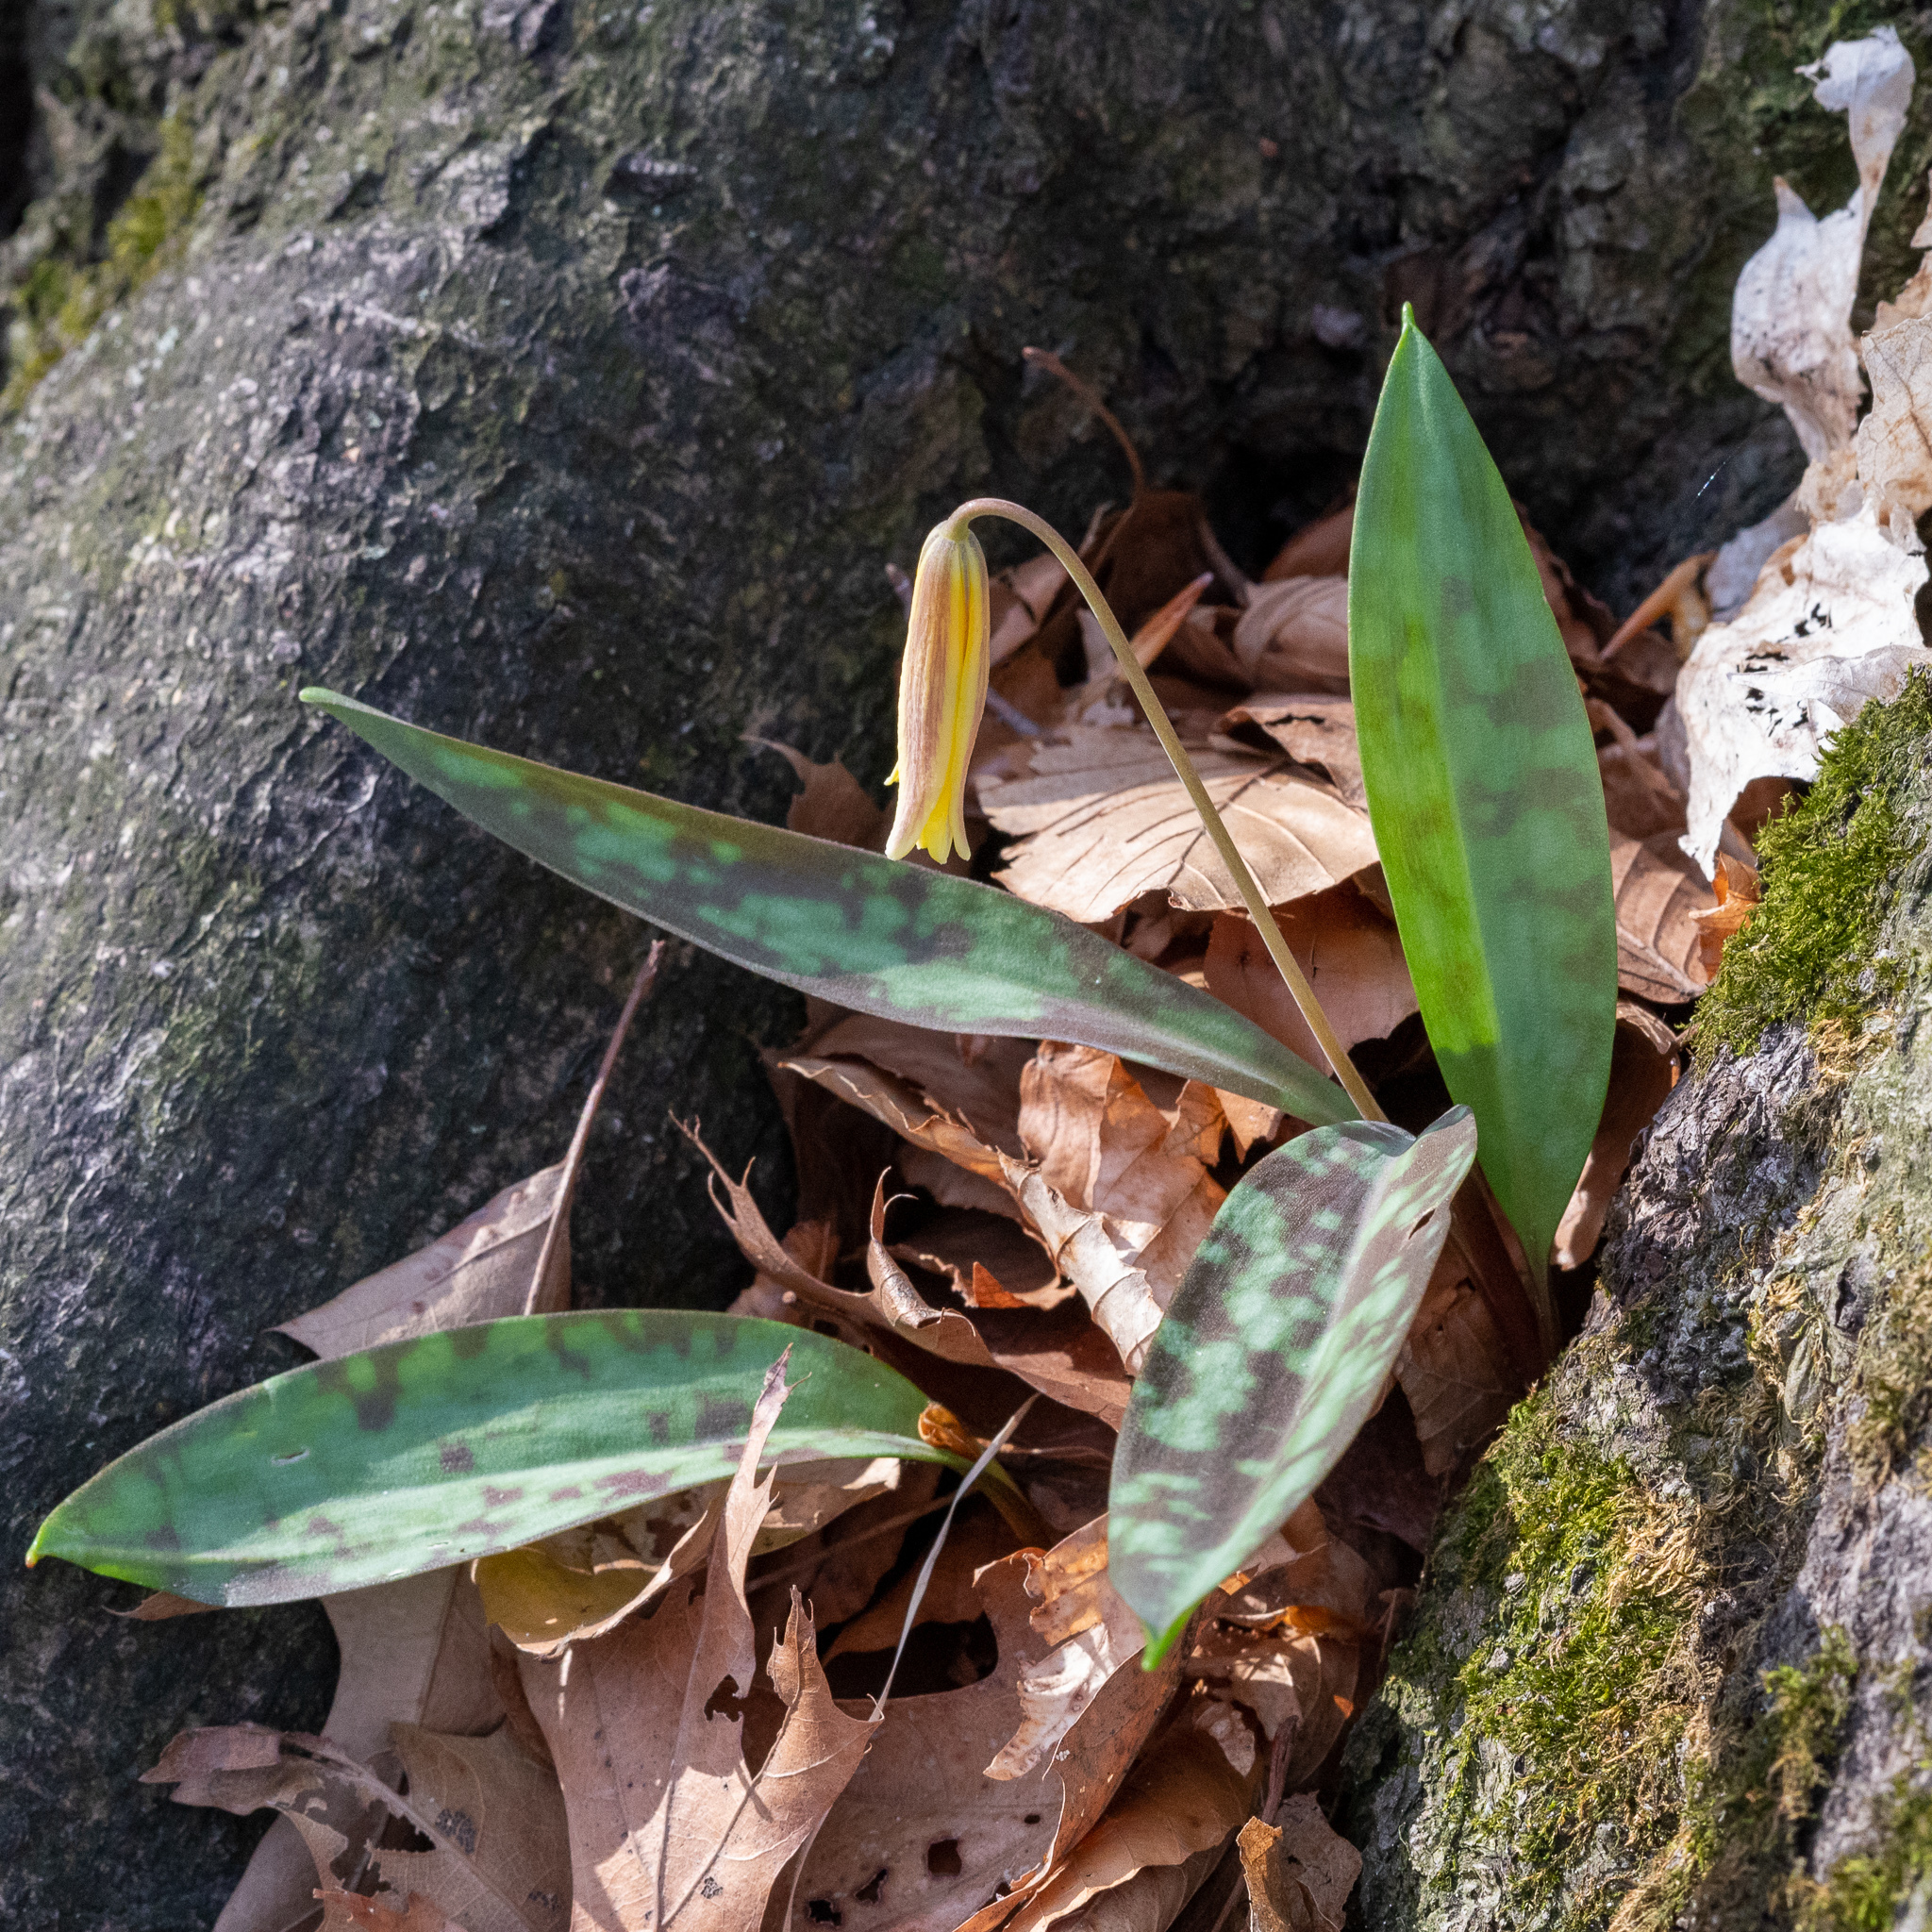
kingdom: Plantae
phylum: Tracheophyta
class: Liliopsida
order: Liliales
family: Liliaceae
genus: Erythronium
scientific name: Erythronium americanum
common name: Yellow adder's-tongue
